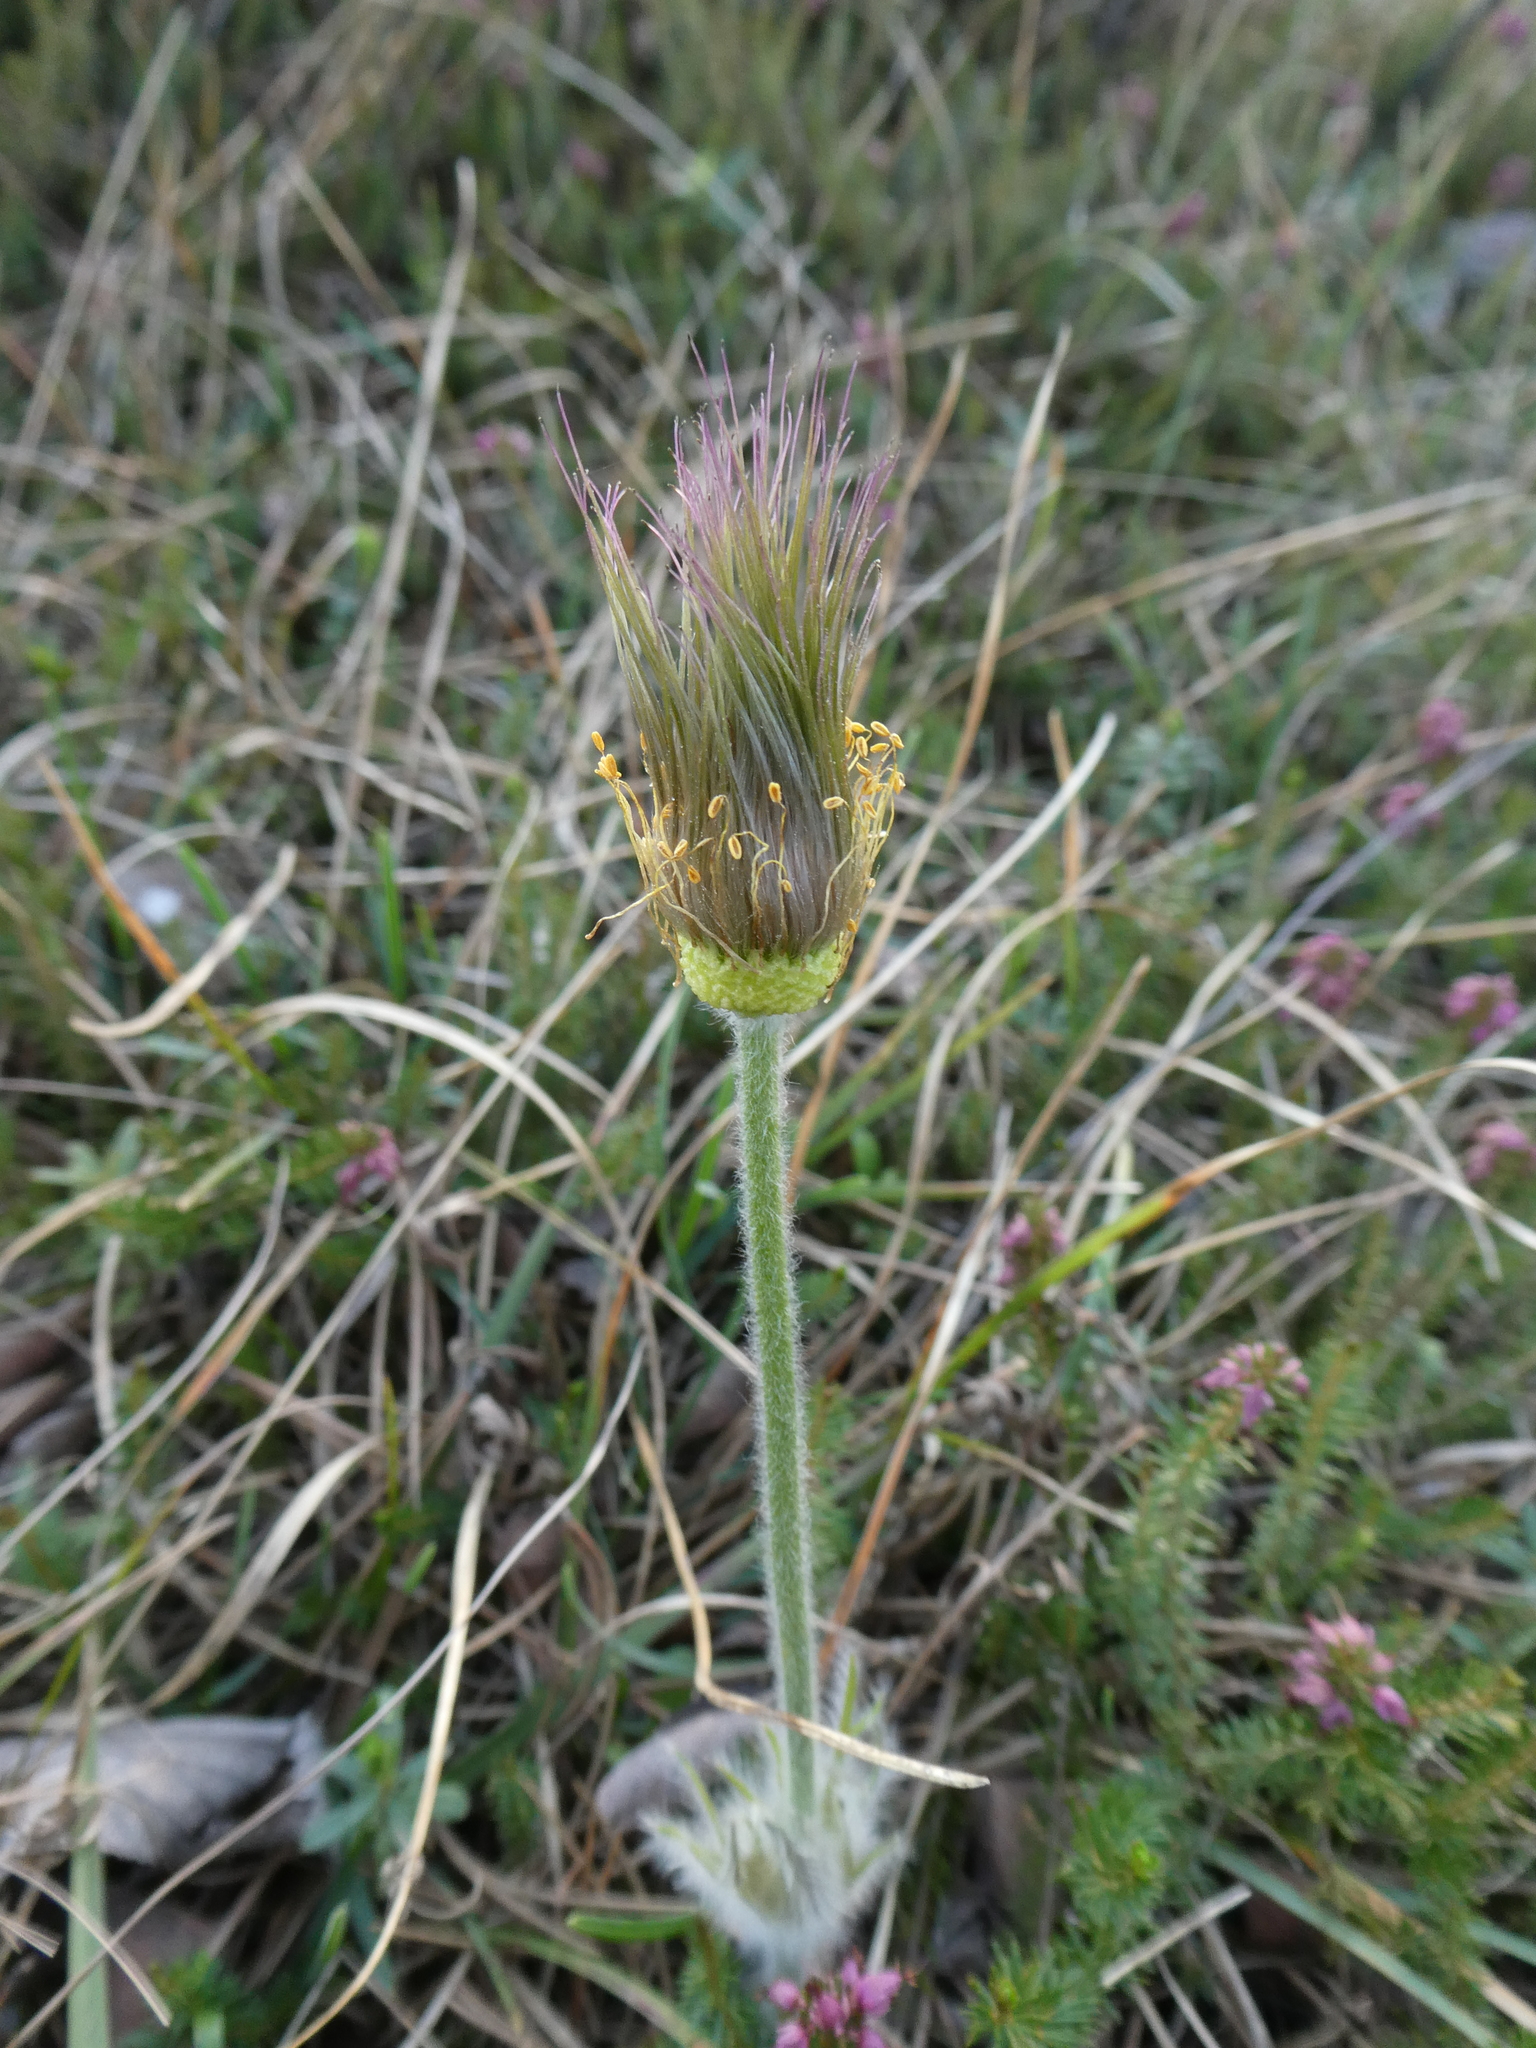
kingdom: Plantae
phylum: Tracheophyta
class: Magnoliopsida
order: Ranunculales
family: Ranunculaceae
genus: Pulsatilla
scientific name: Pulsatilla grandis
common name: Greater pasque flower
